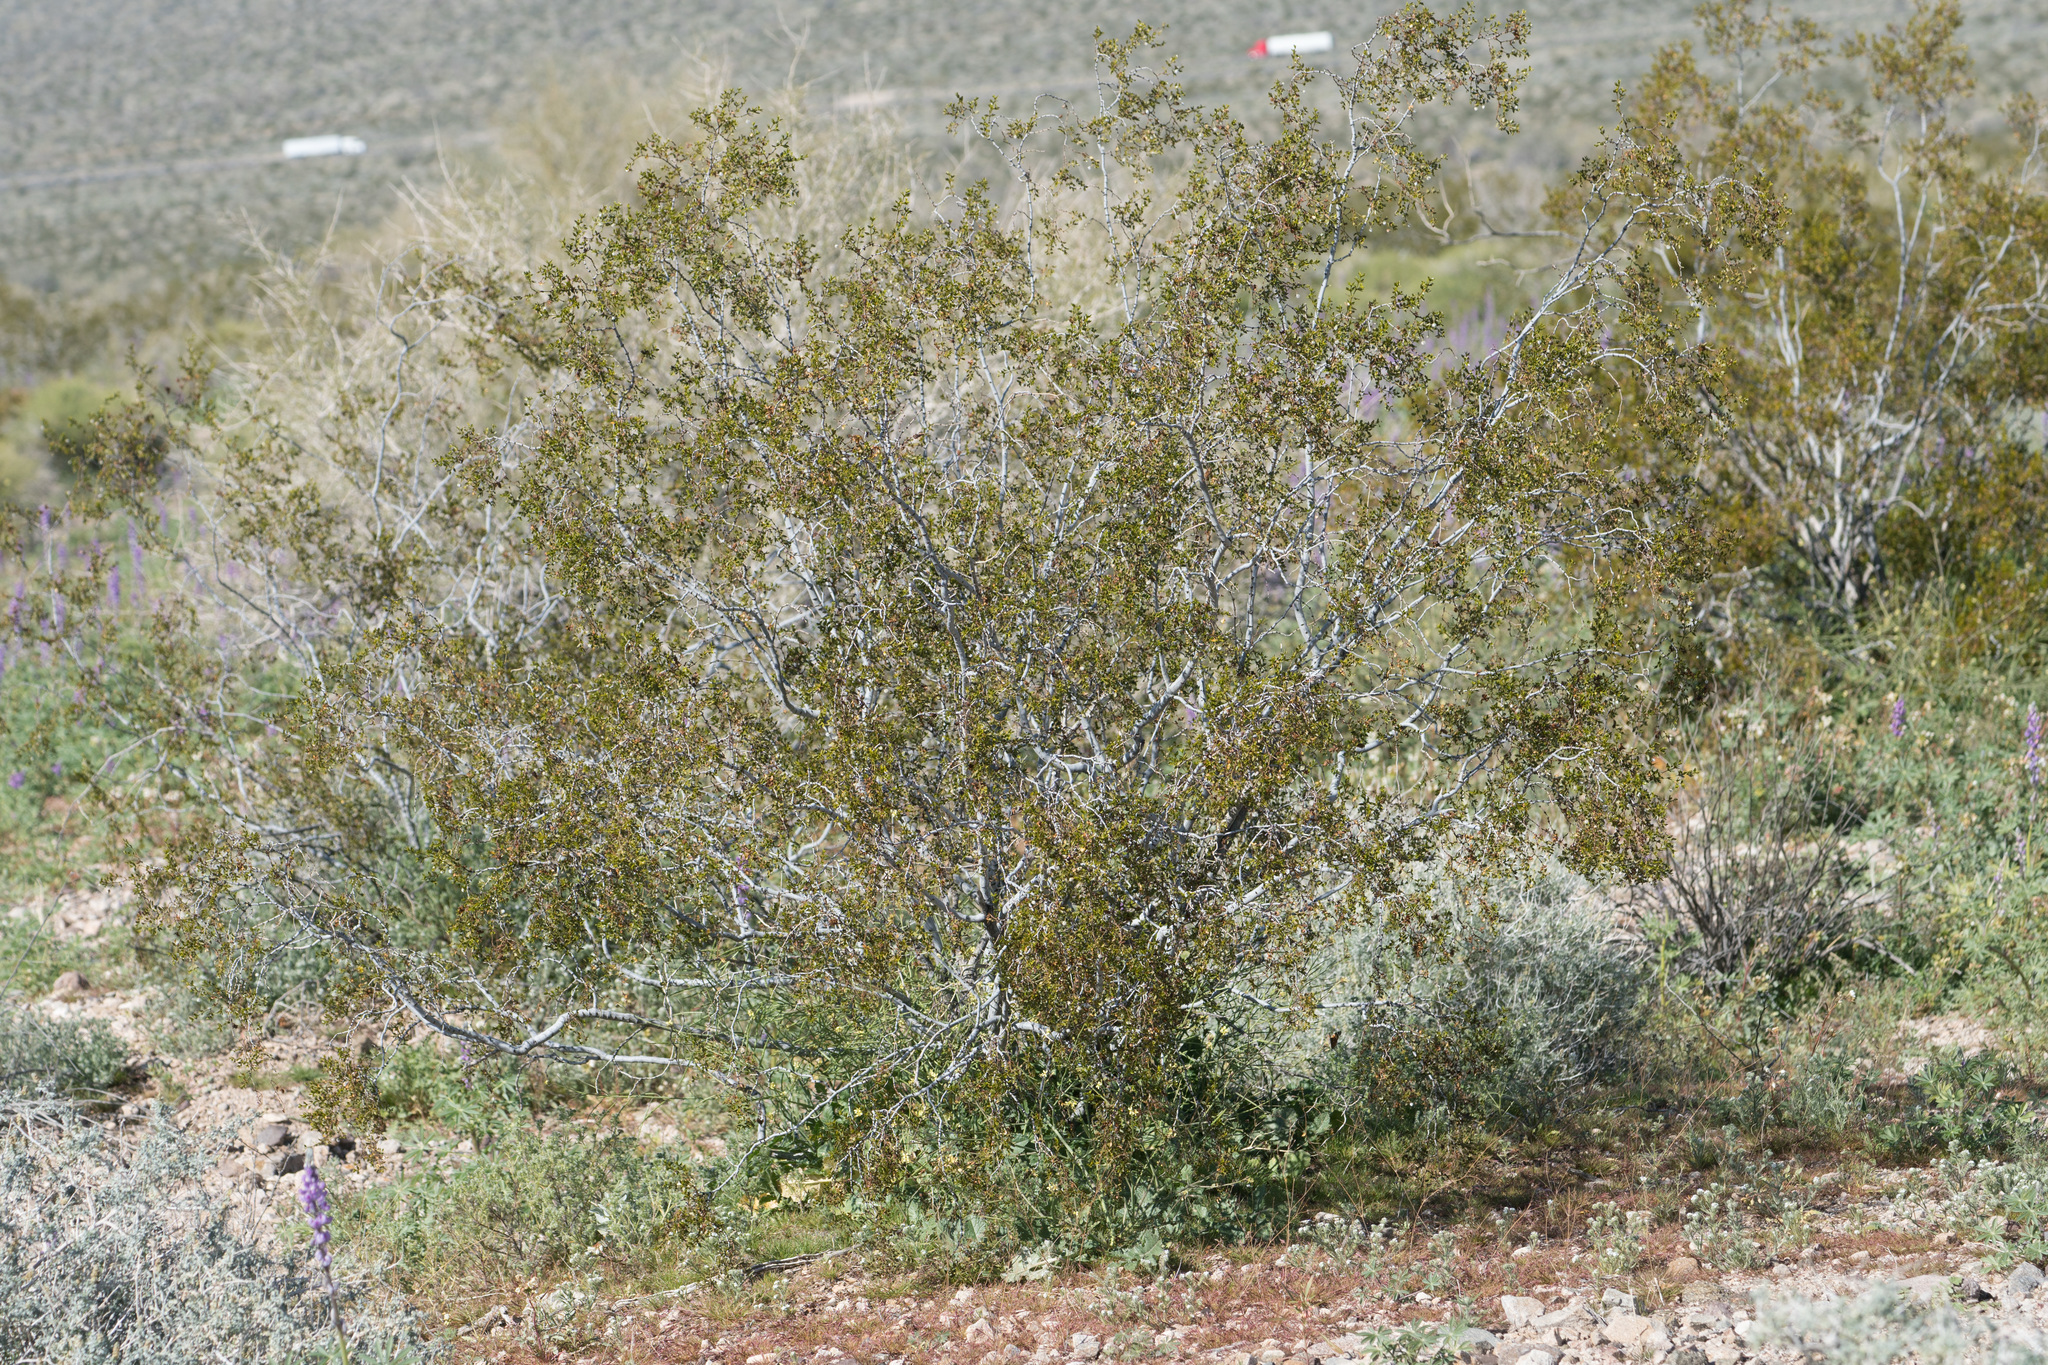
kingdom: Plantae
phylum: Tracheophyta
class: Magnoliopsida
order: Zygophyllales
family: Zygophyllaceae
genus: Larrea
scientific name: Larrea tridentata
